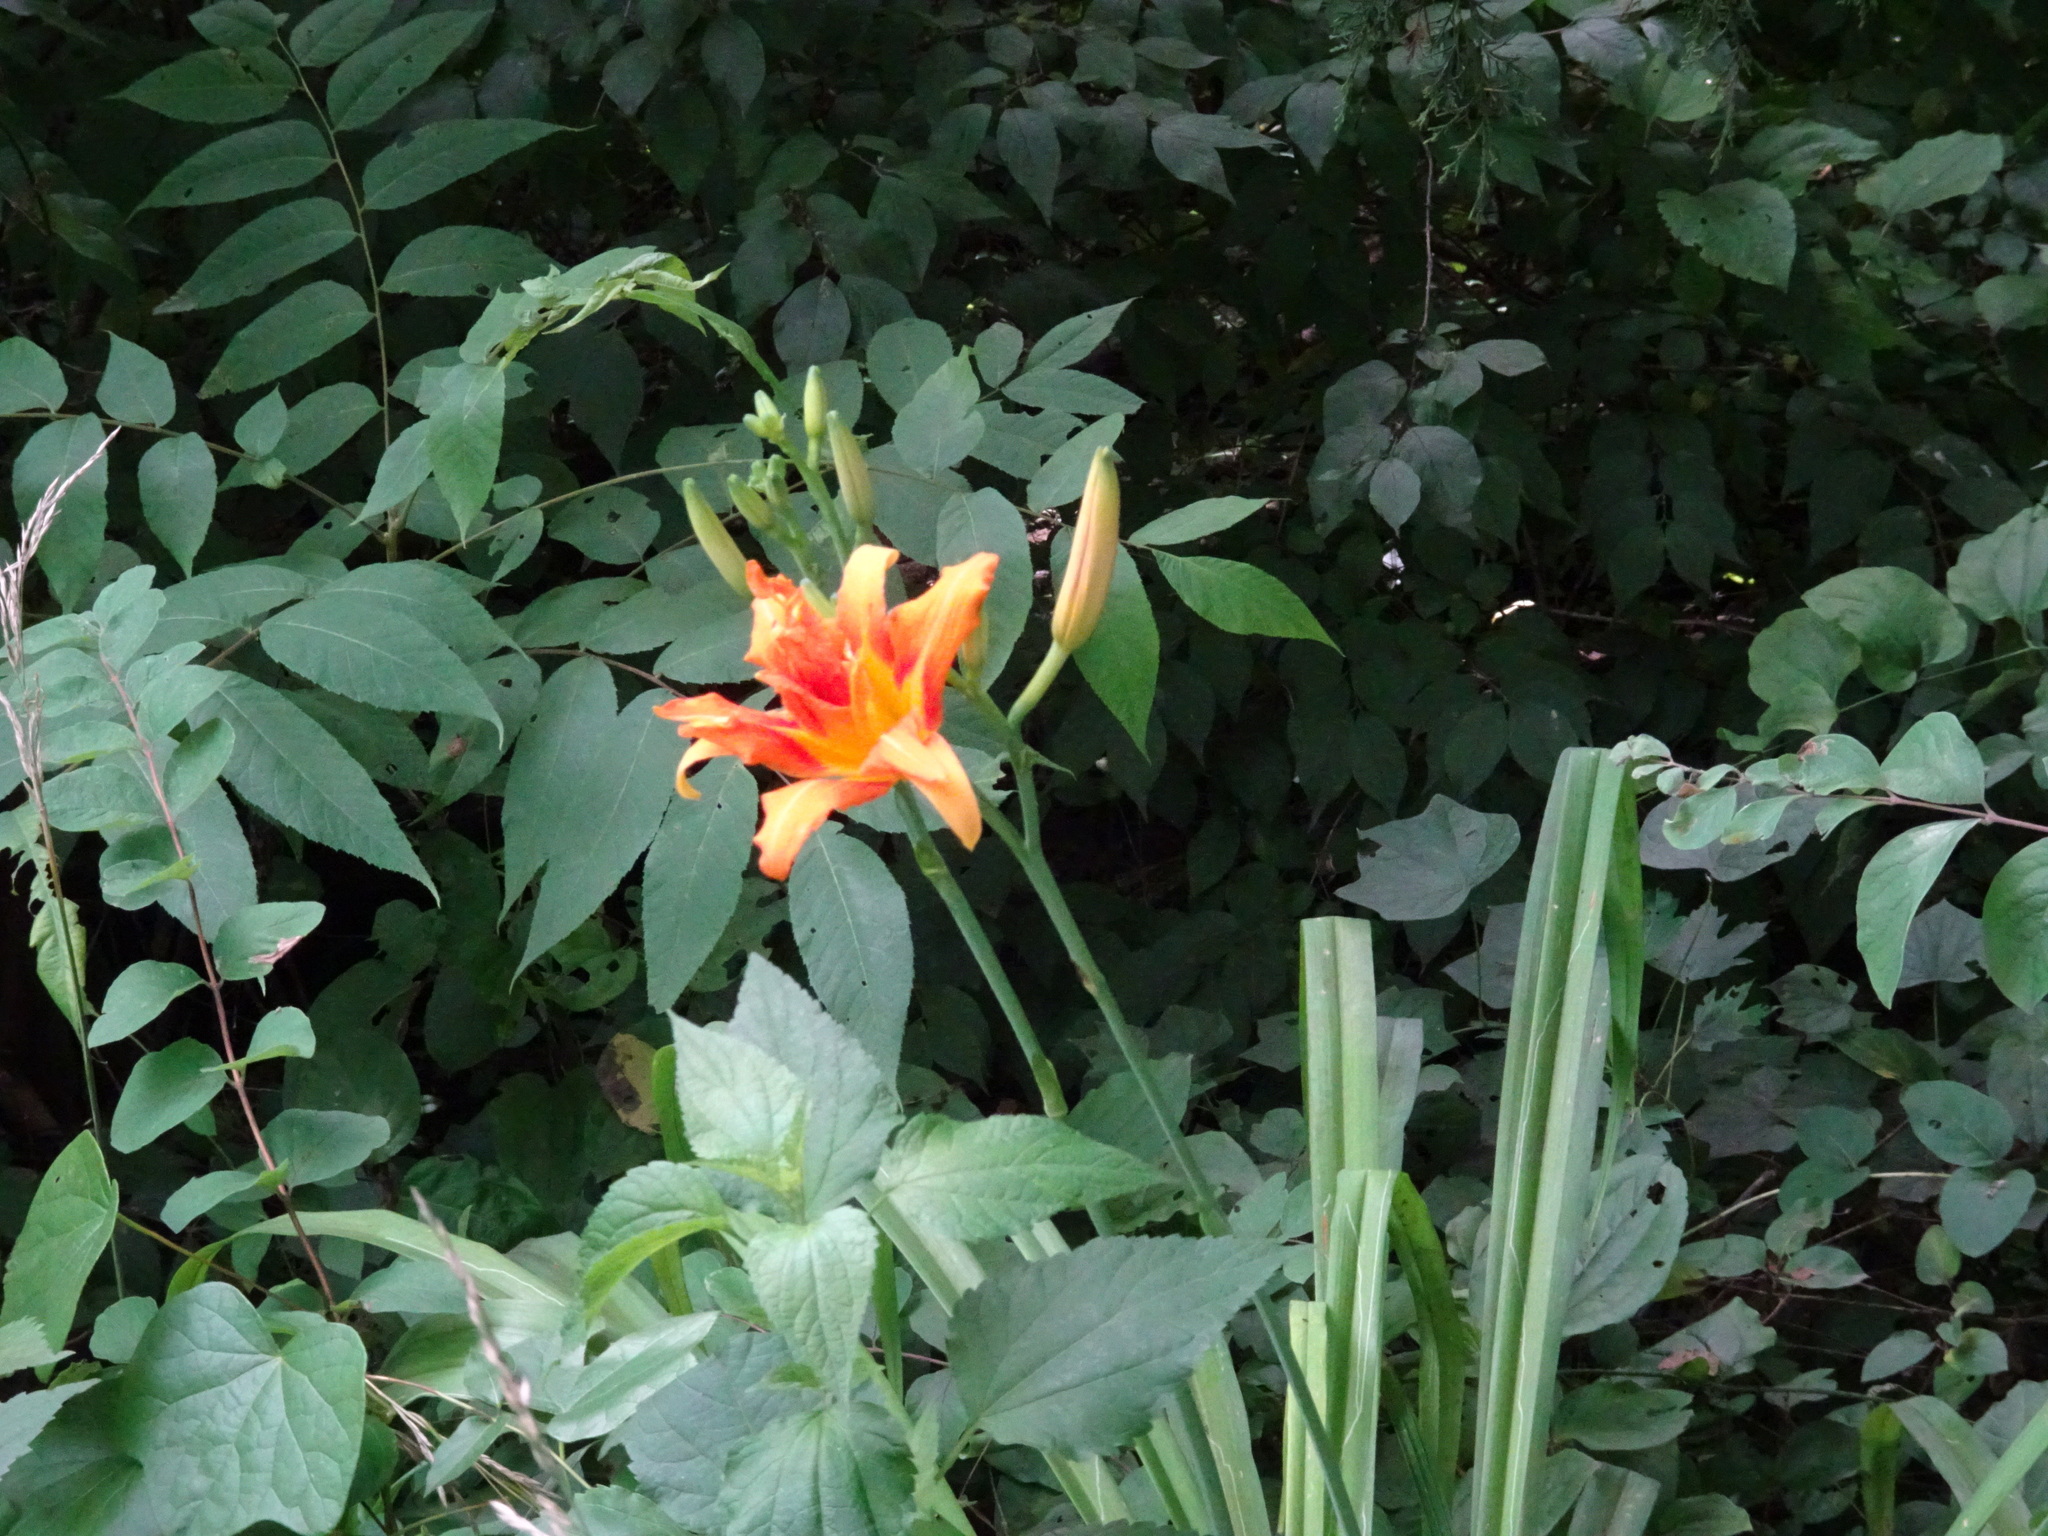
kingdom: Plantae
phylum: Tracheophyta
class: Liliopsida
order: Asparagales
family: Asphodelaceae
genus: Hemerocallis
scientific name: Hemerocallis fulva
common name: Orange day-lily
